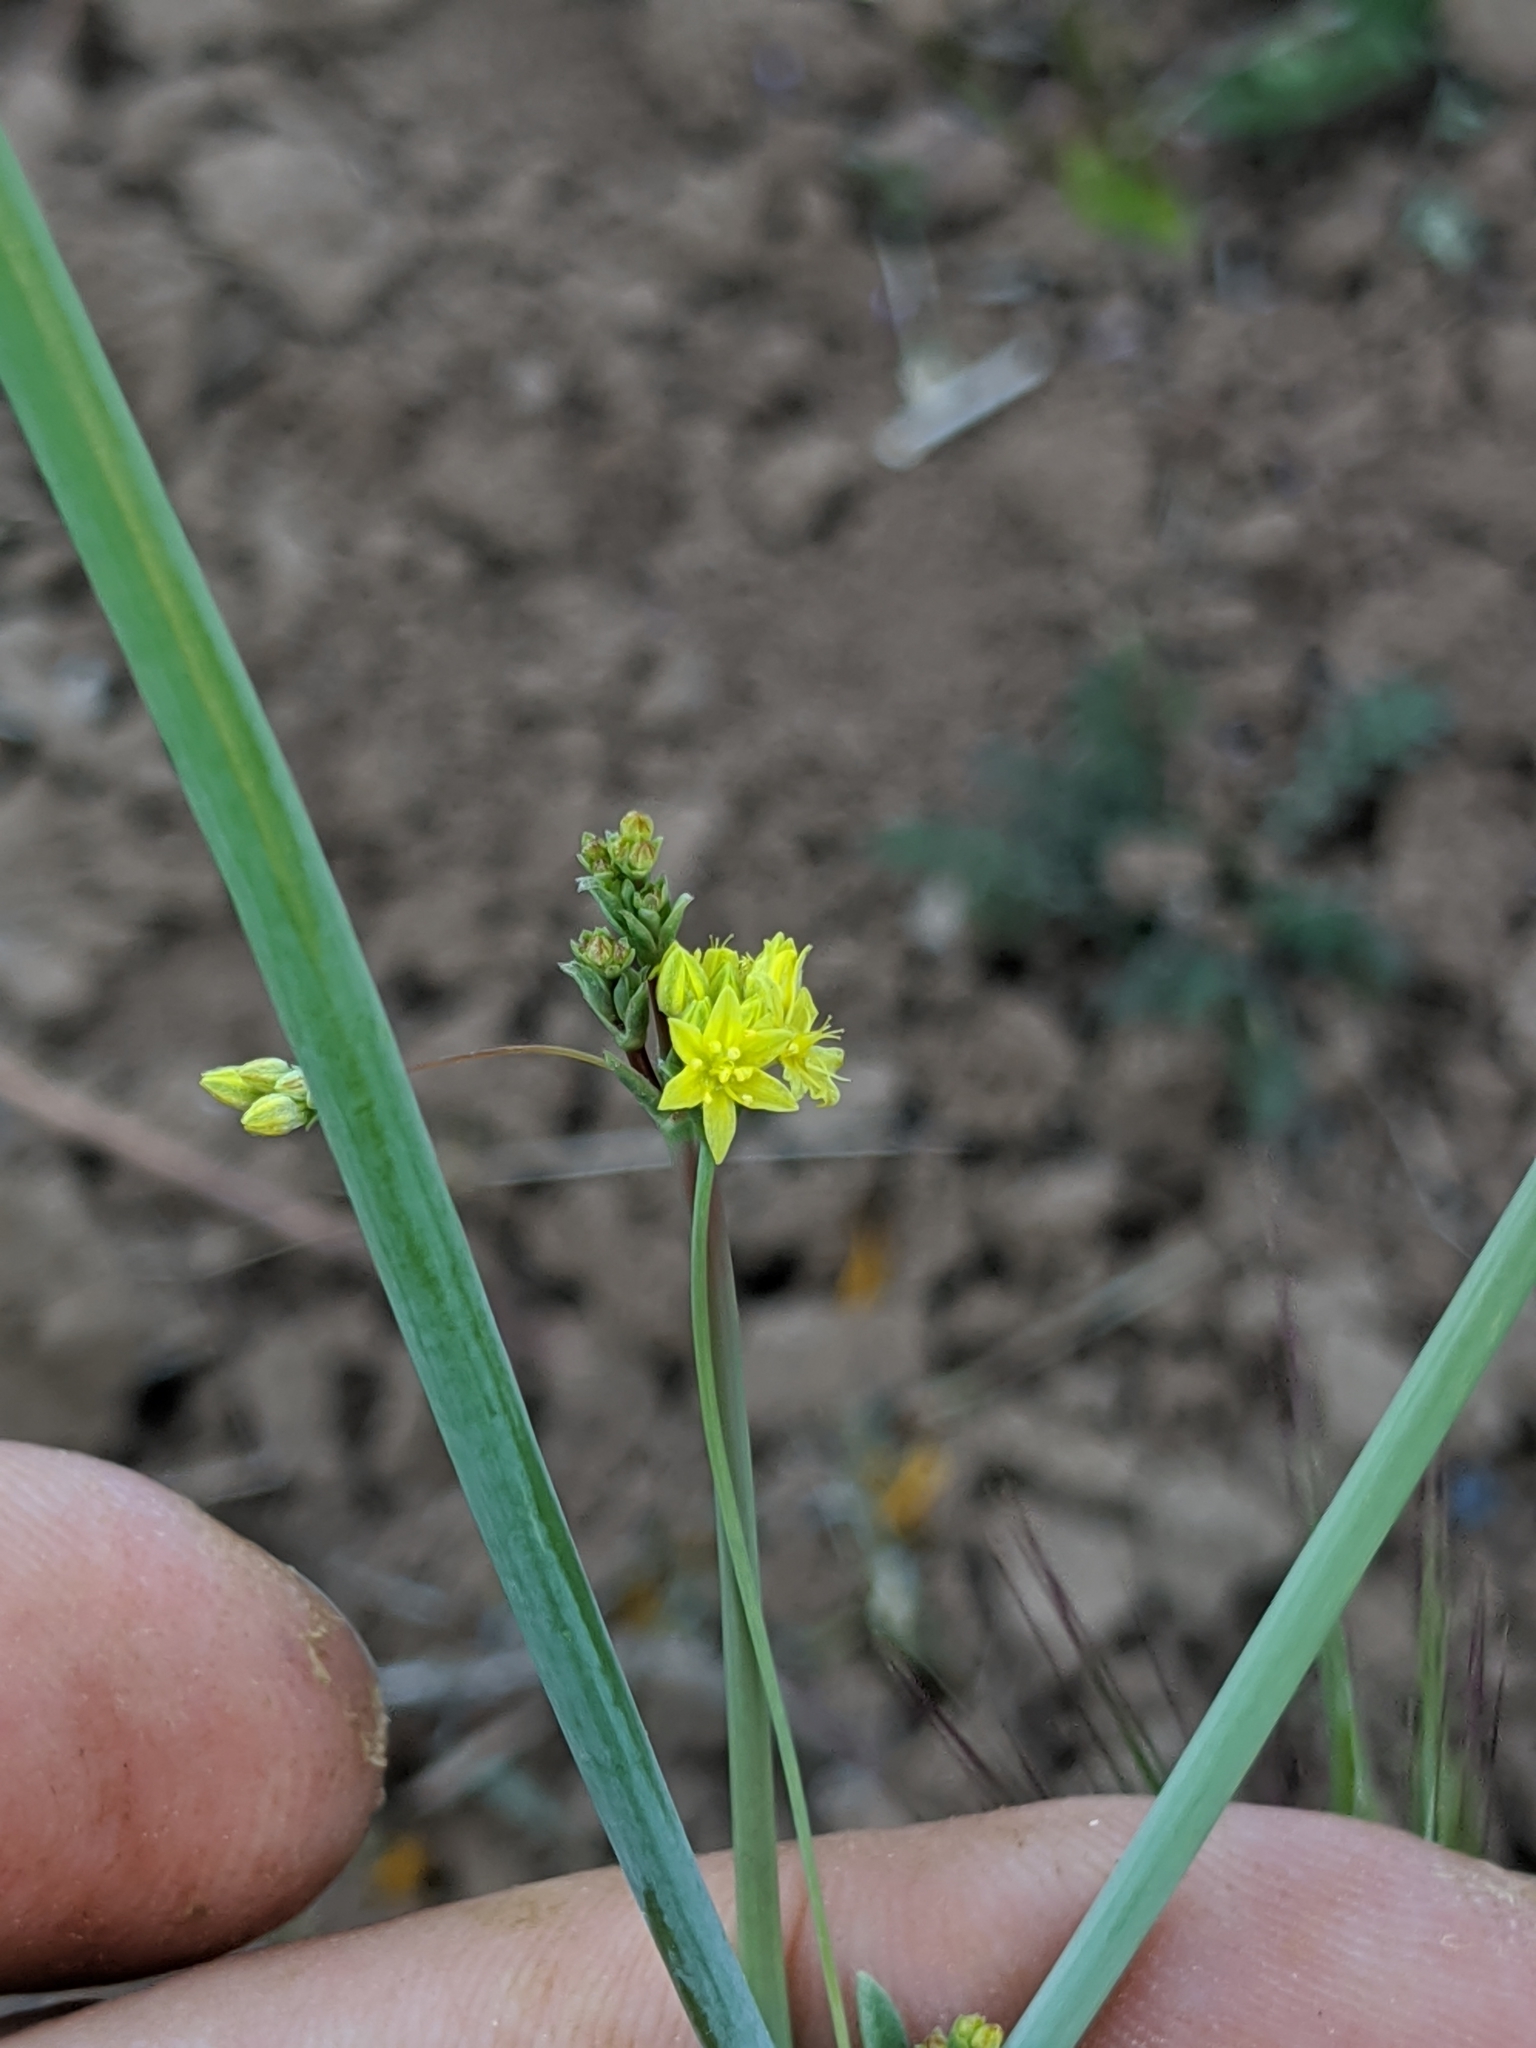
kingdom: Plantae
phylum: Tracheophyta
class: Magnoliopsida
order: Caryophyllales
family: Polygonaceae
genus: Eriogonum
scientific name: Eriogonum clavatum
